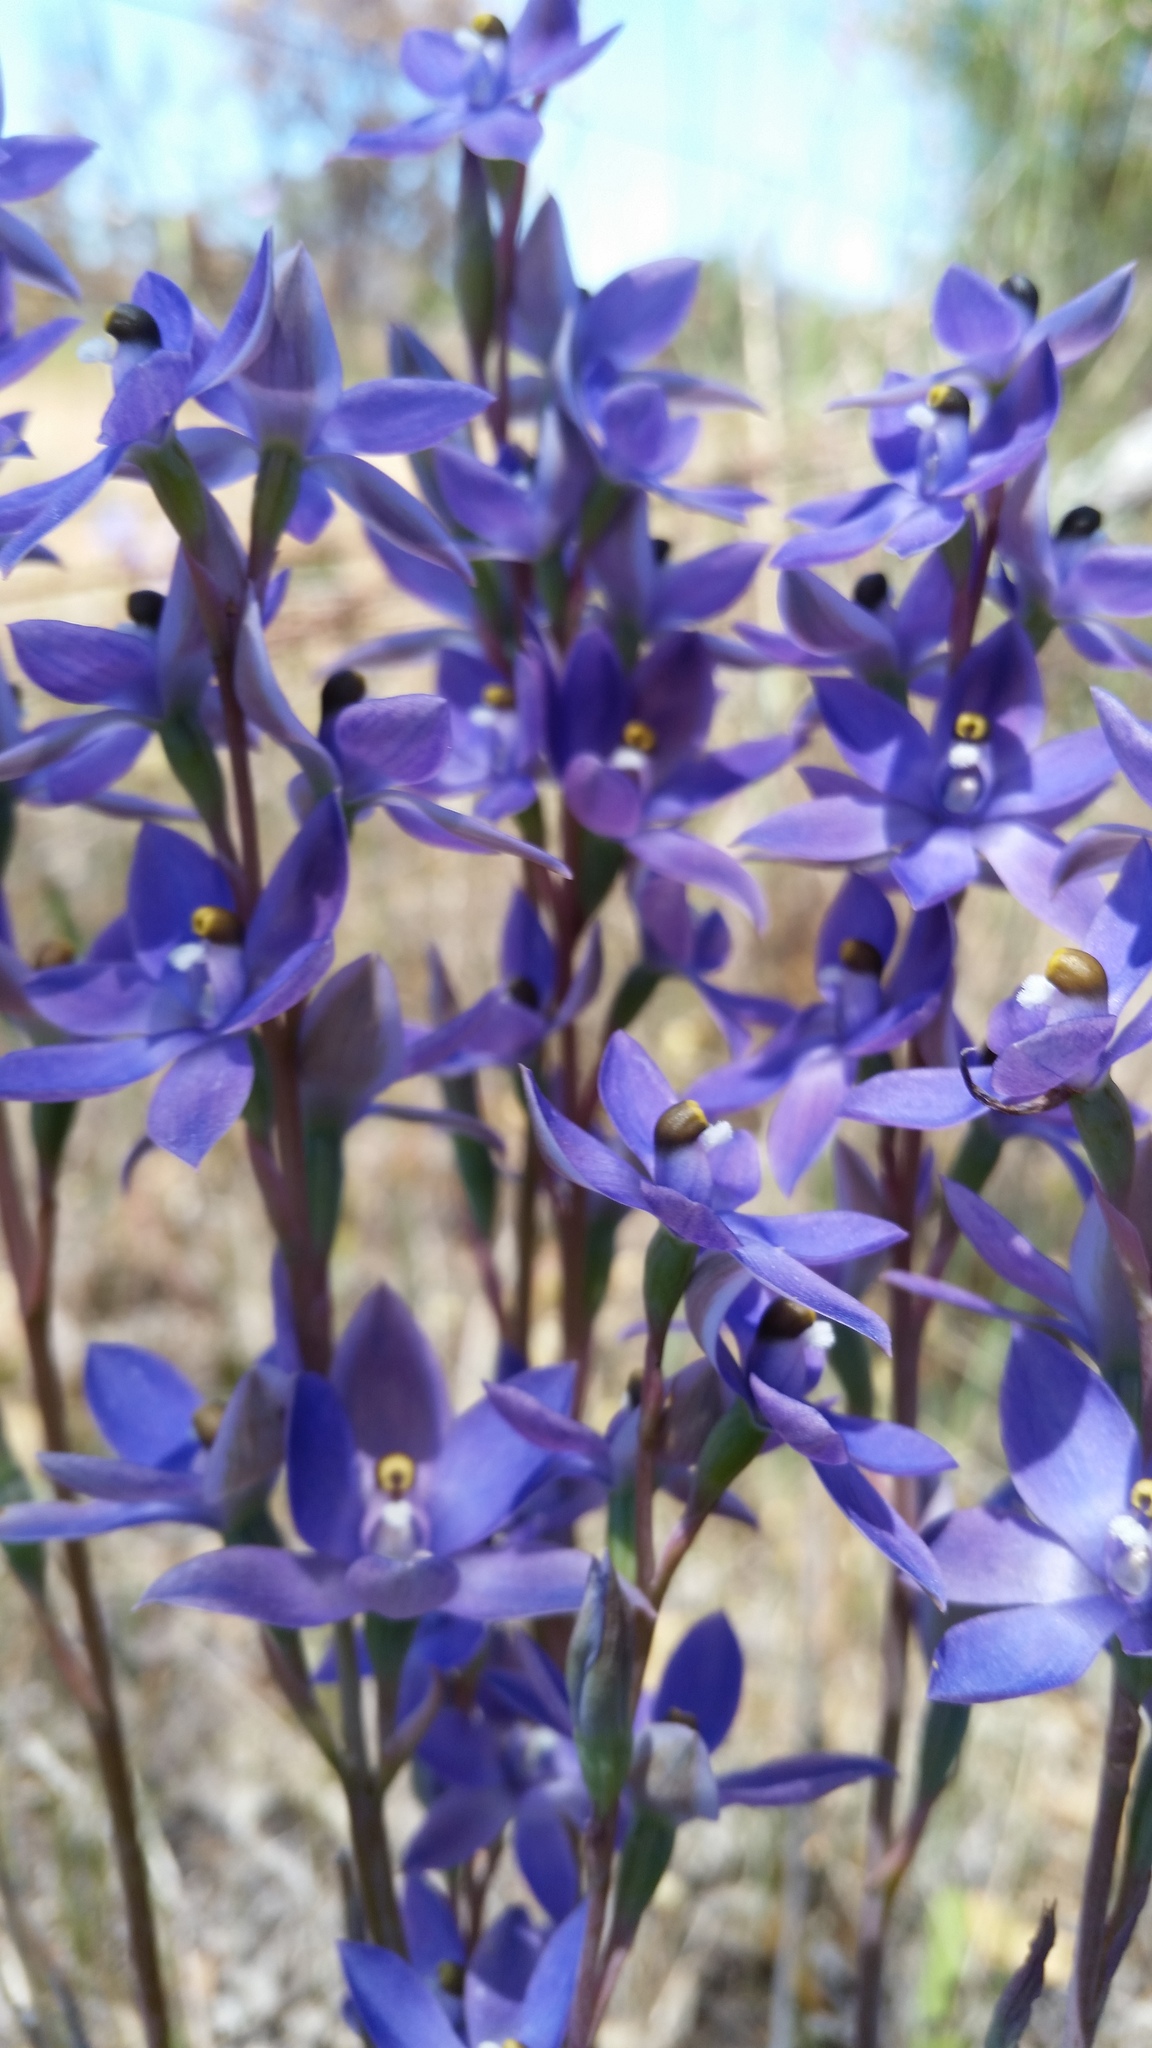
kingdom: Plantae
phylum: Tracheophyta
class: Liliopsida
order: Asparagales
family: Orchidaceae
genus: Thelymitra
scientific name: Thelymitra macrophylla
